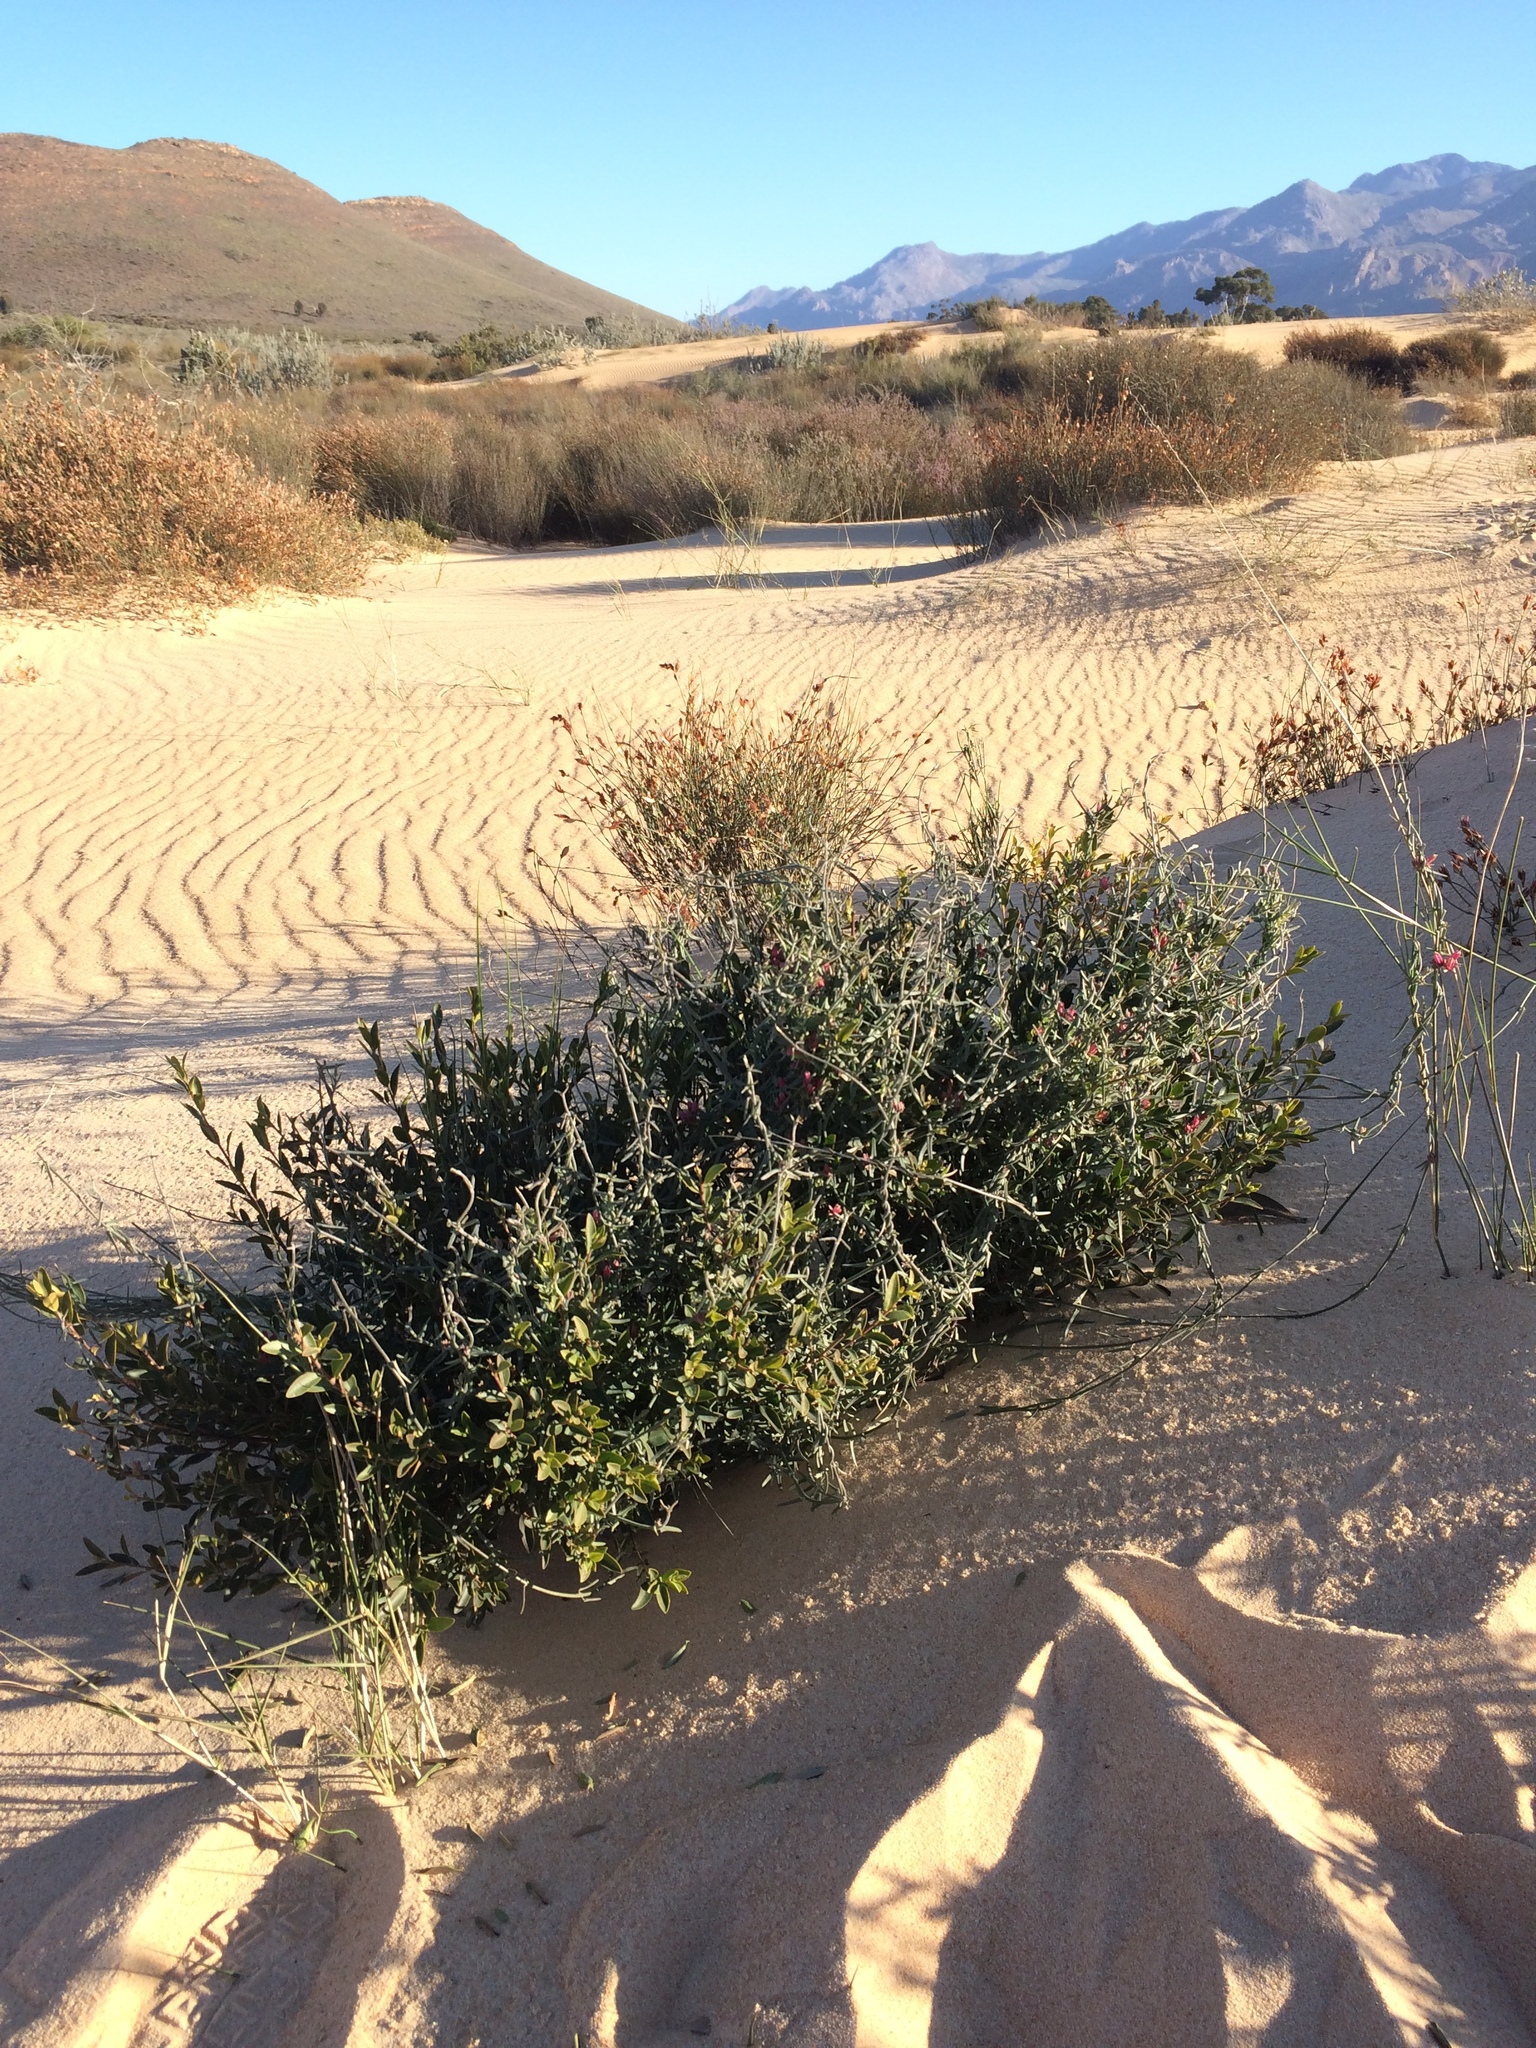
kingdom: Plantae
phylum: Tracheophyta
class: Magnoliopsida
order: Gentianales
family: Apocynaceae
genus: Microloma
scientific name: Microloma sagittatum
